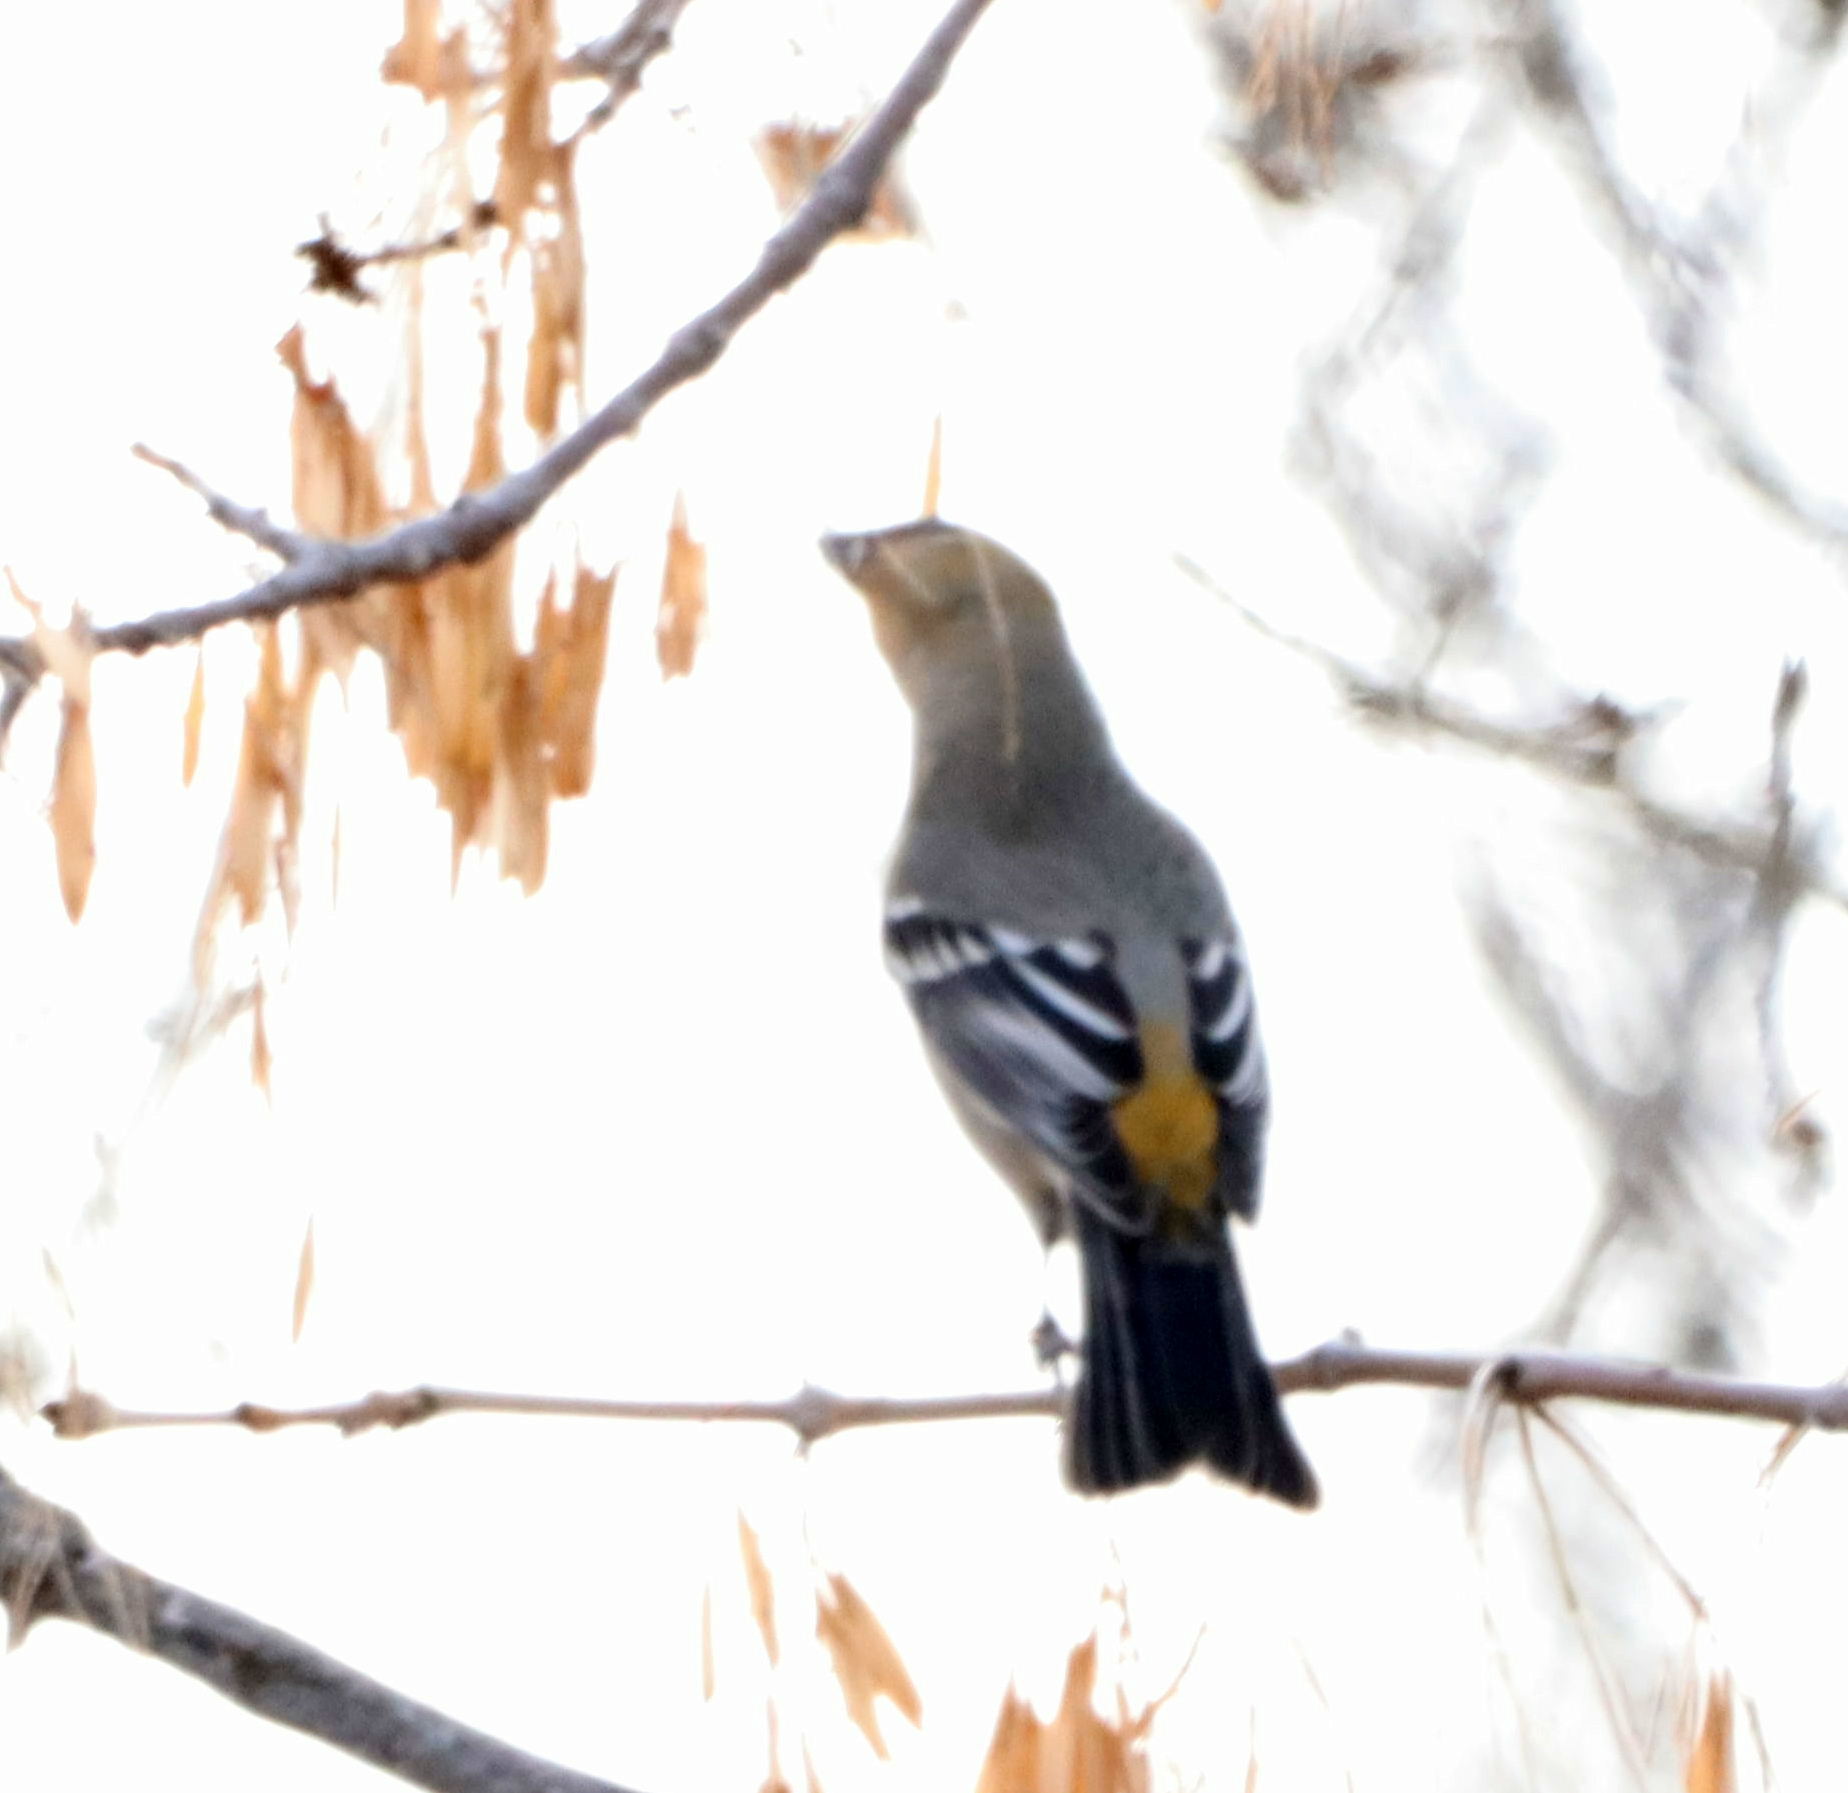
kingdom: Animalia
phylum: Chordata
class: Aves
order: Passeriformes
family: Fringillidae
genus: Pinicola
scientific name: Pinicola enucleator
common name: Pine grosbeak
